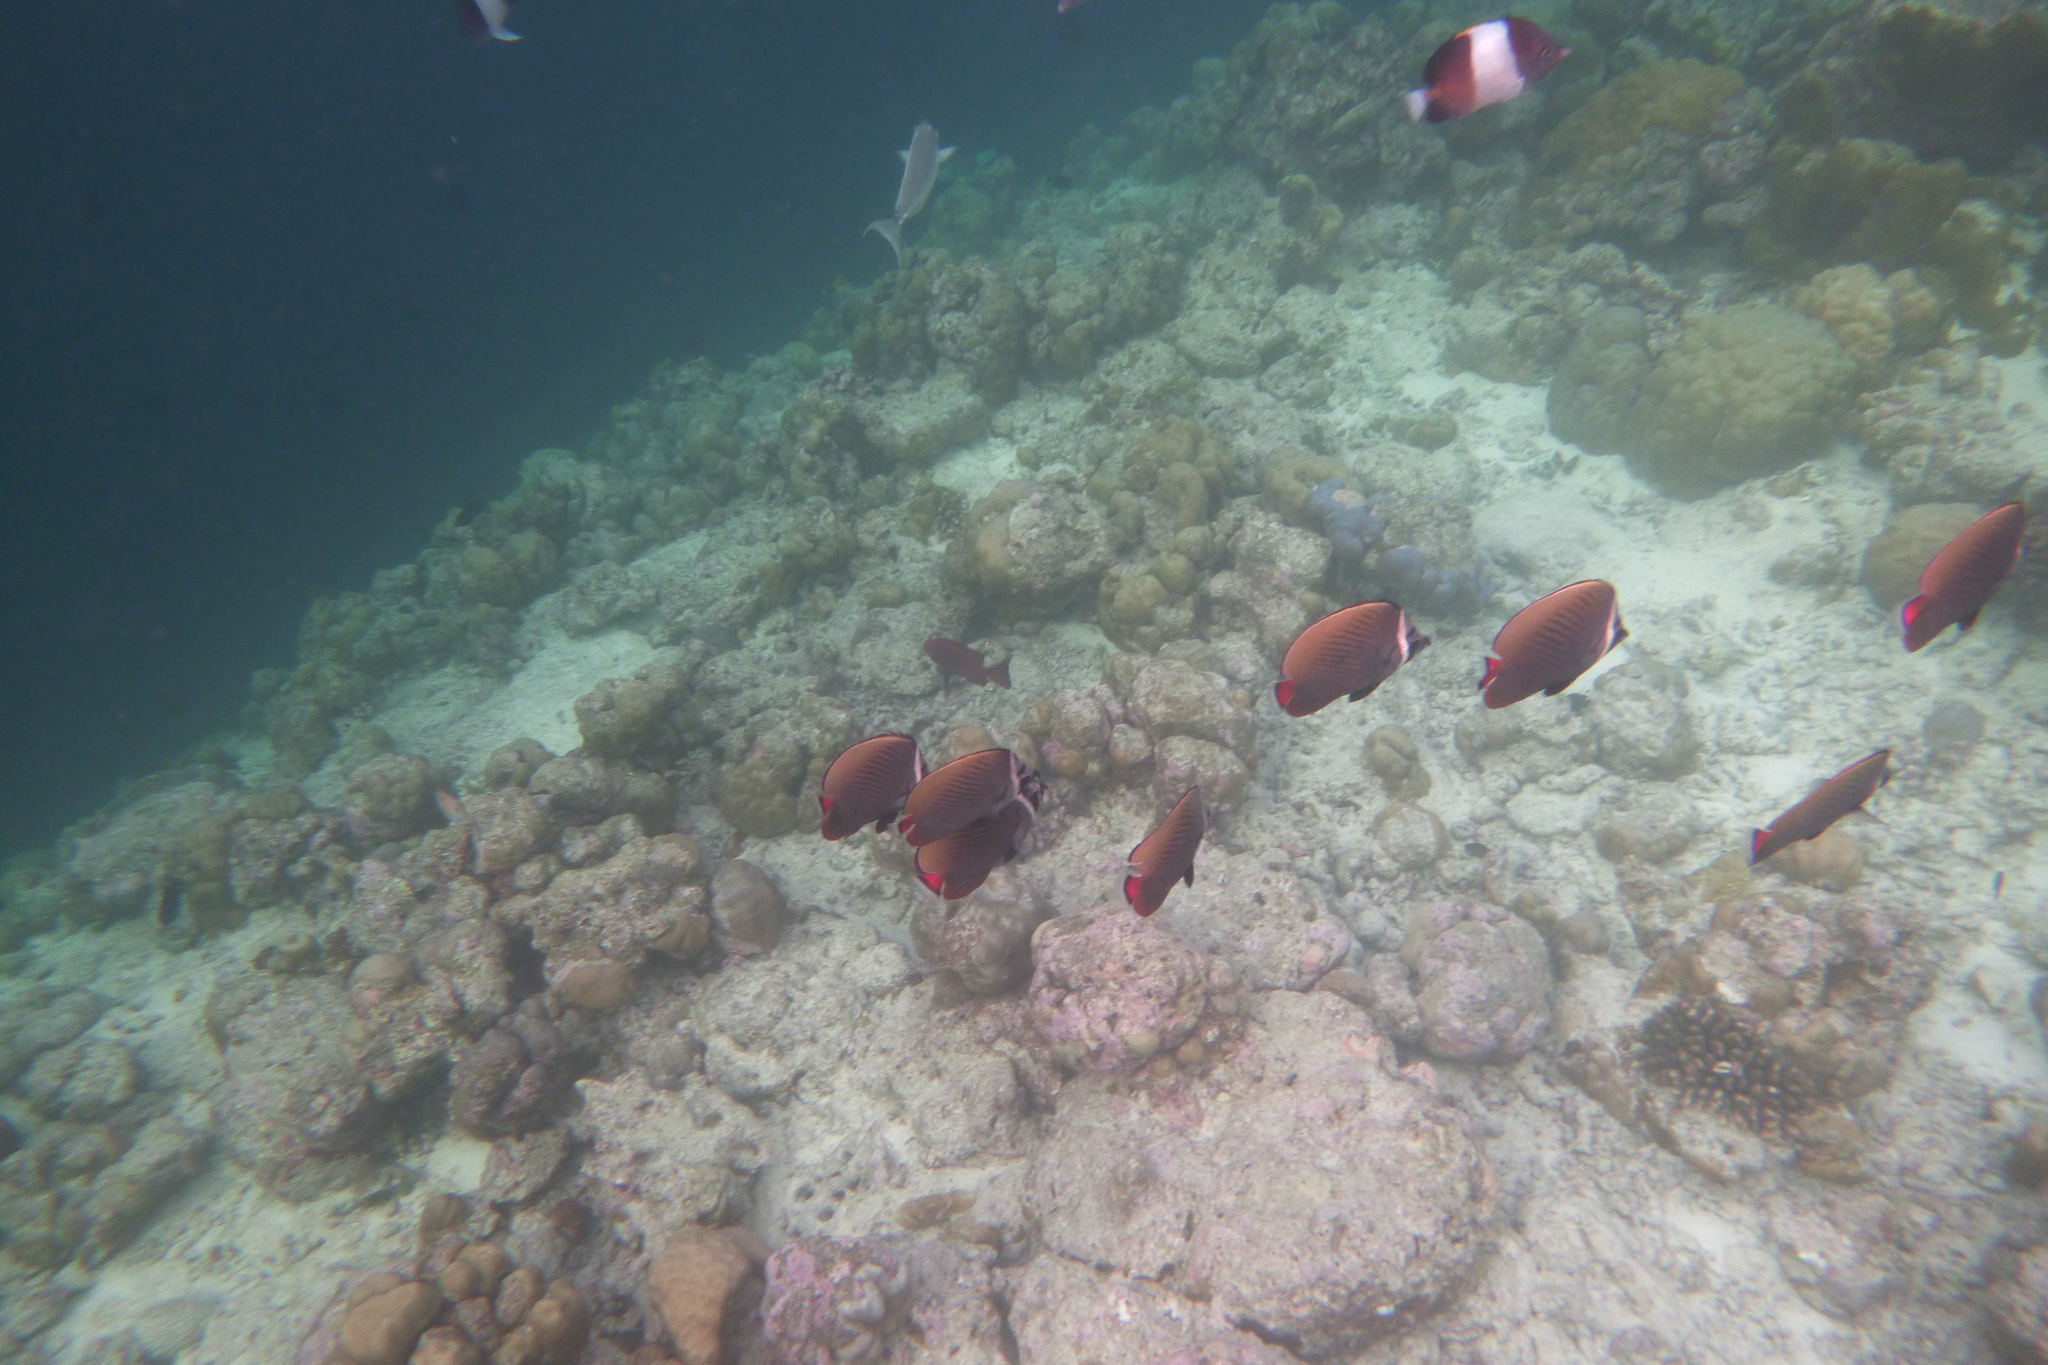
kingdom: Animalia
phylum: Chordata
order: Perciformes
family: Chaetodontidae
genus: Chaetodon
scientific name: Chaetodon collare
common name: Redtail butterflyfish
